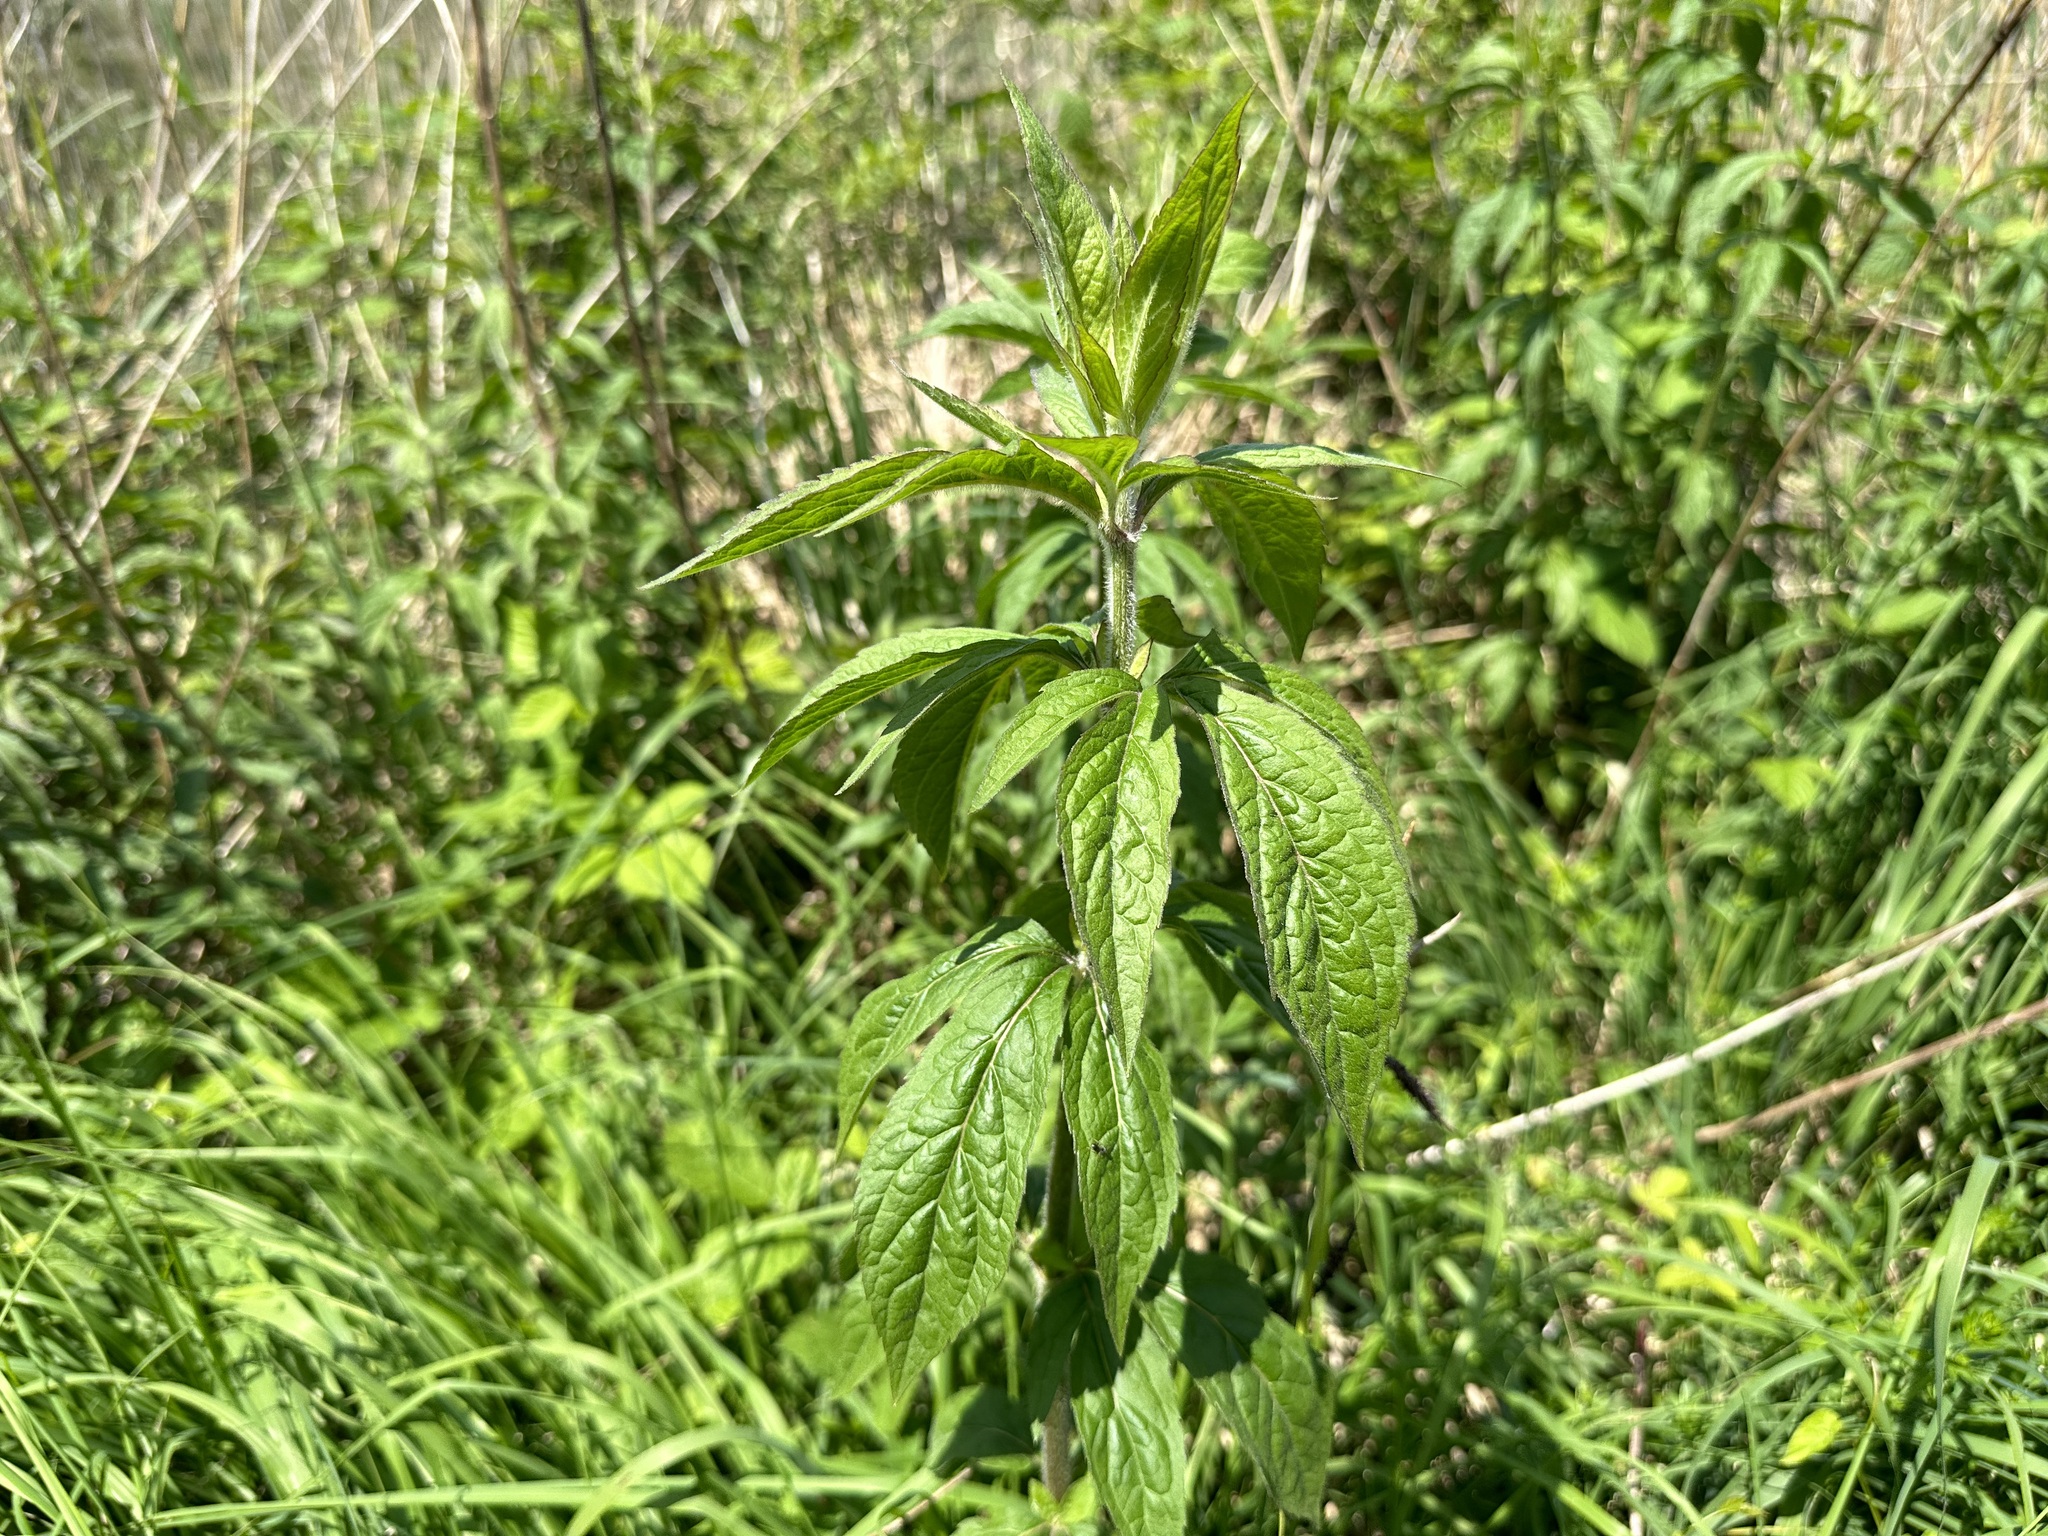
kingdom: Plantae
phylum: Tracheophyta
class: Magnoliopsida
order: Asterales
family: Asteraceae
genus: Eupatorium
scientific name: Eupatorium cannabinum
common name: Hemp-agrimony
